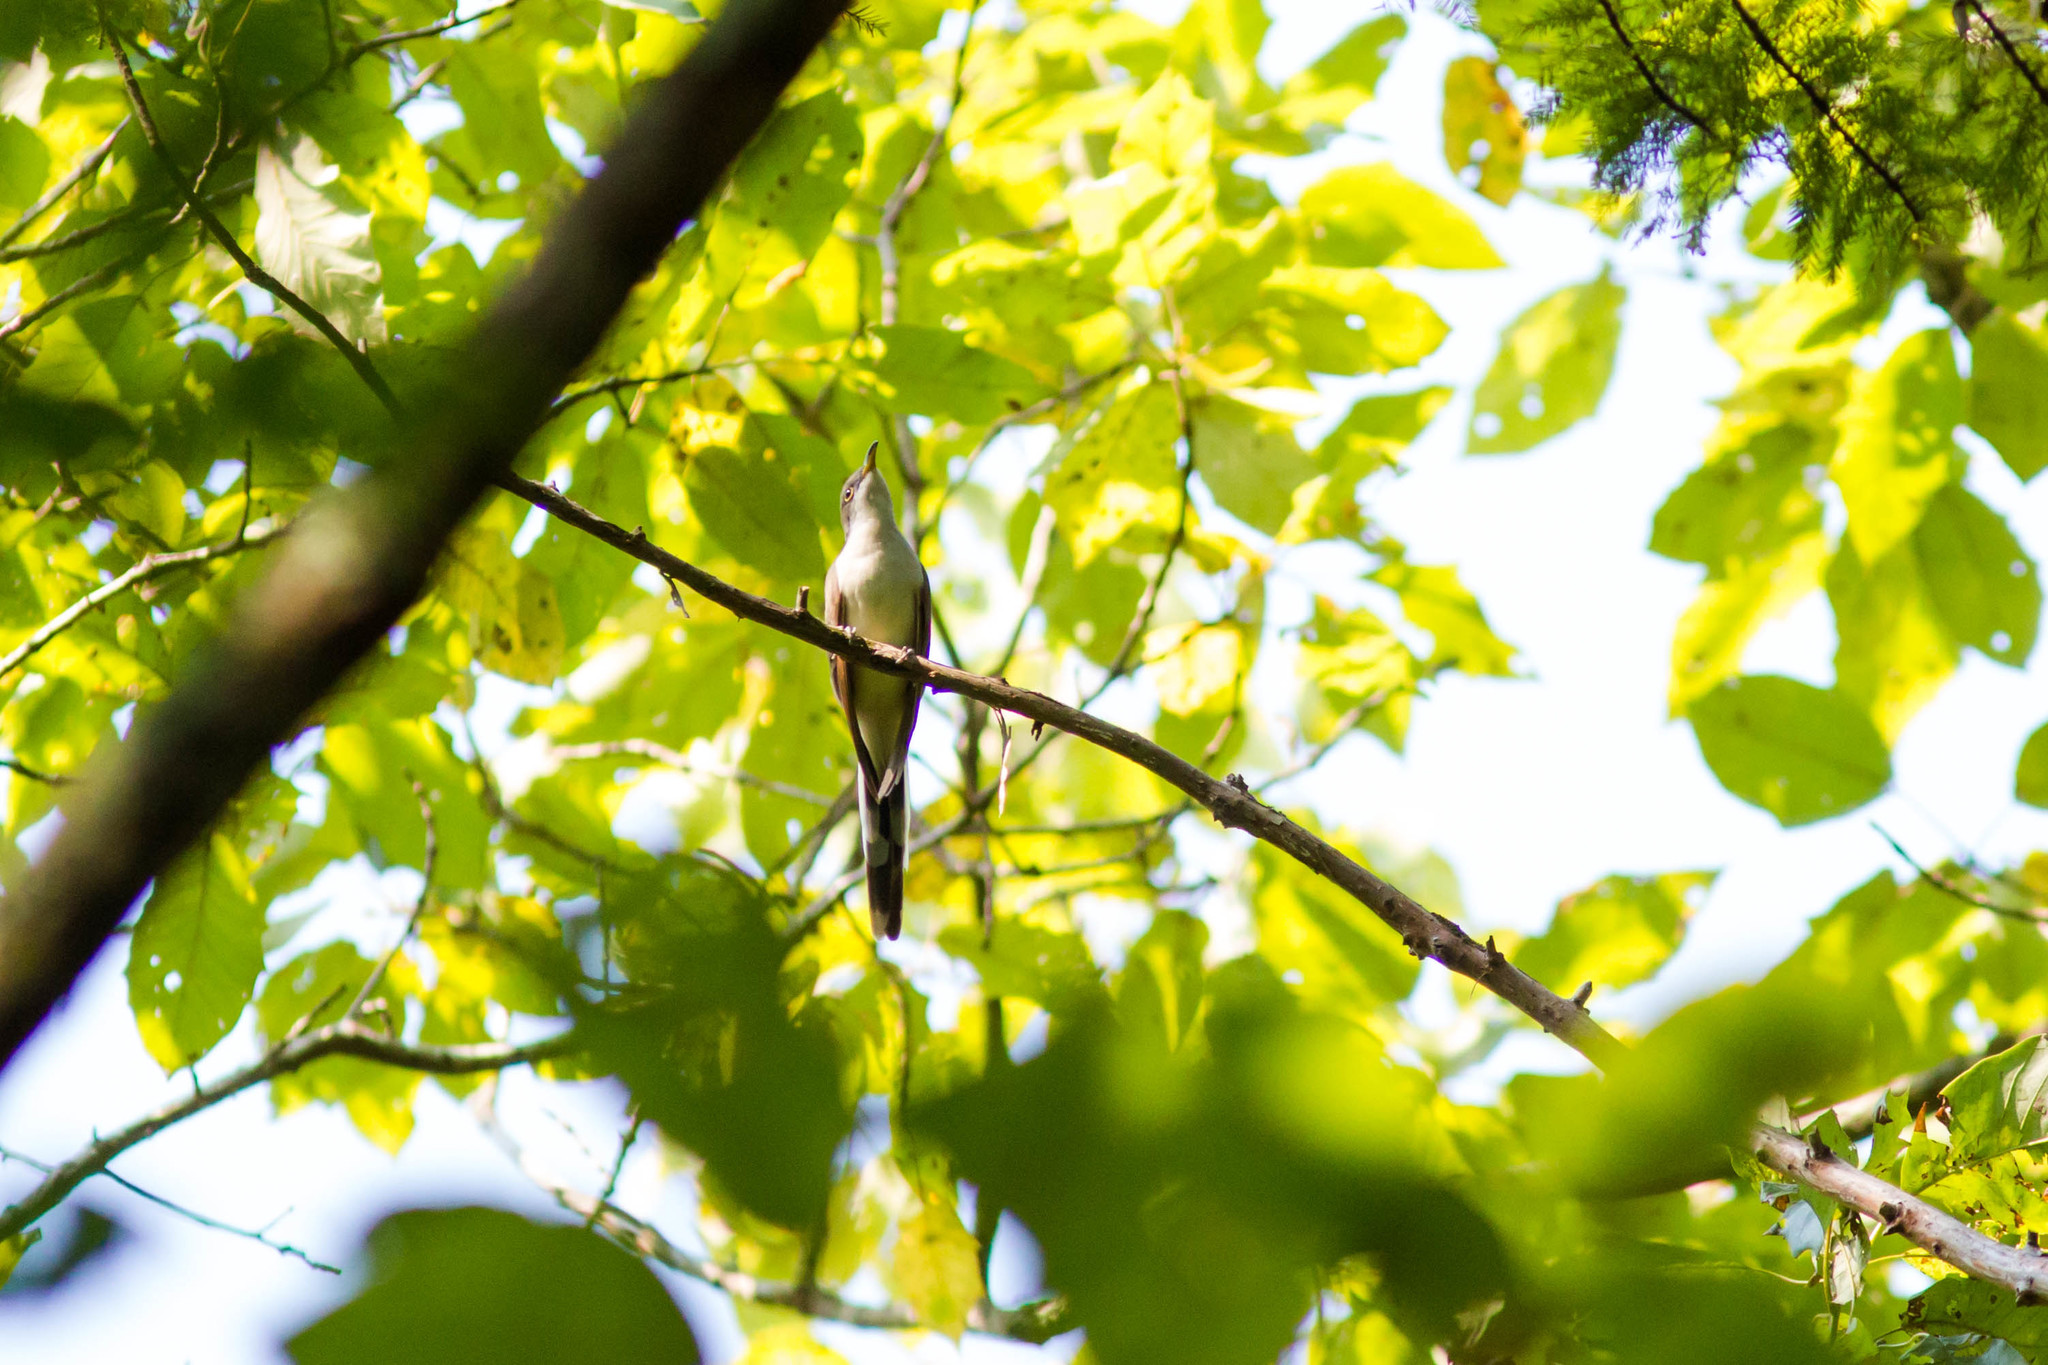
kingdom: Animalia
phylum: Chordata
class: Aves
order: Cuculiformes
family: Cuculidae
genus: Coccyzus
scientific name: Coccyzus americanus
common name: Yellow-billed cuckoo
